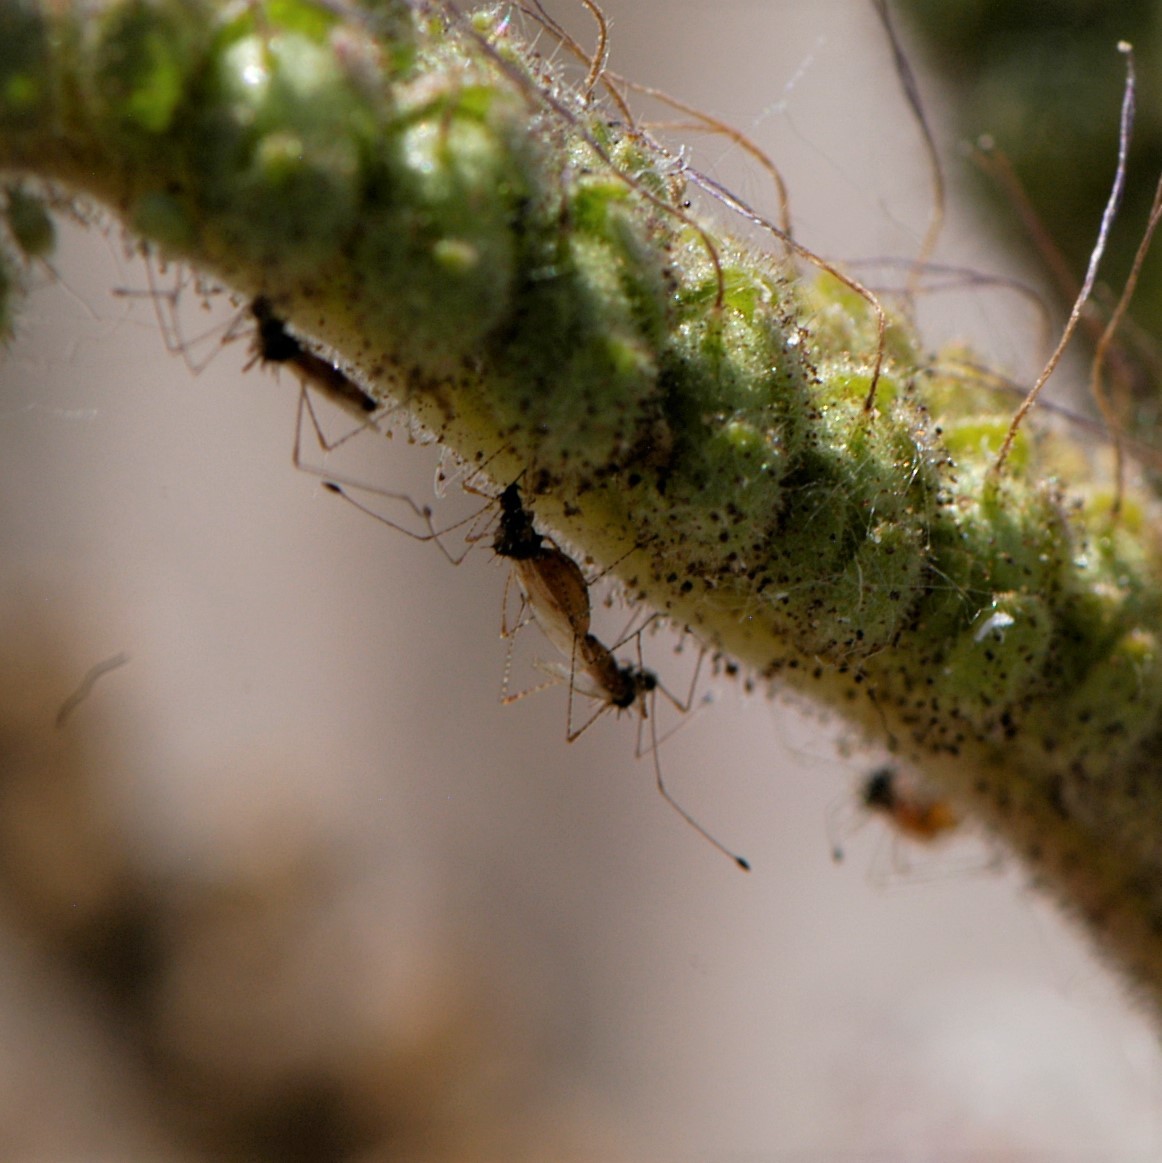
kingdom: Animalia
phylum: Arthropoda
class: Insecta
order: Hemiptera
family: Berytidae
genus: Pronotacantha
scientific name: Pronotacantha annulata
